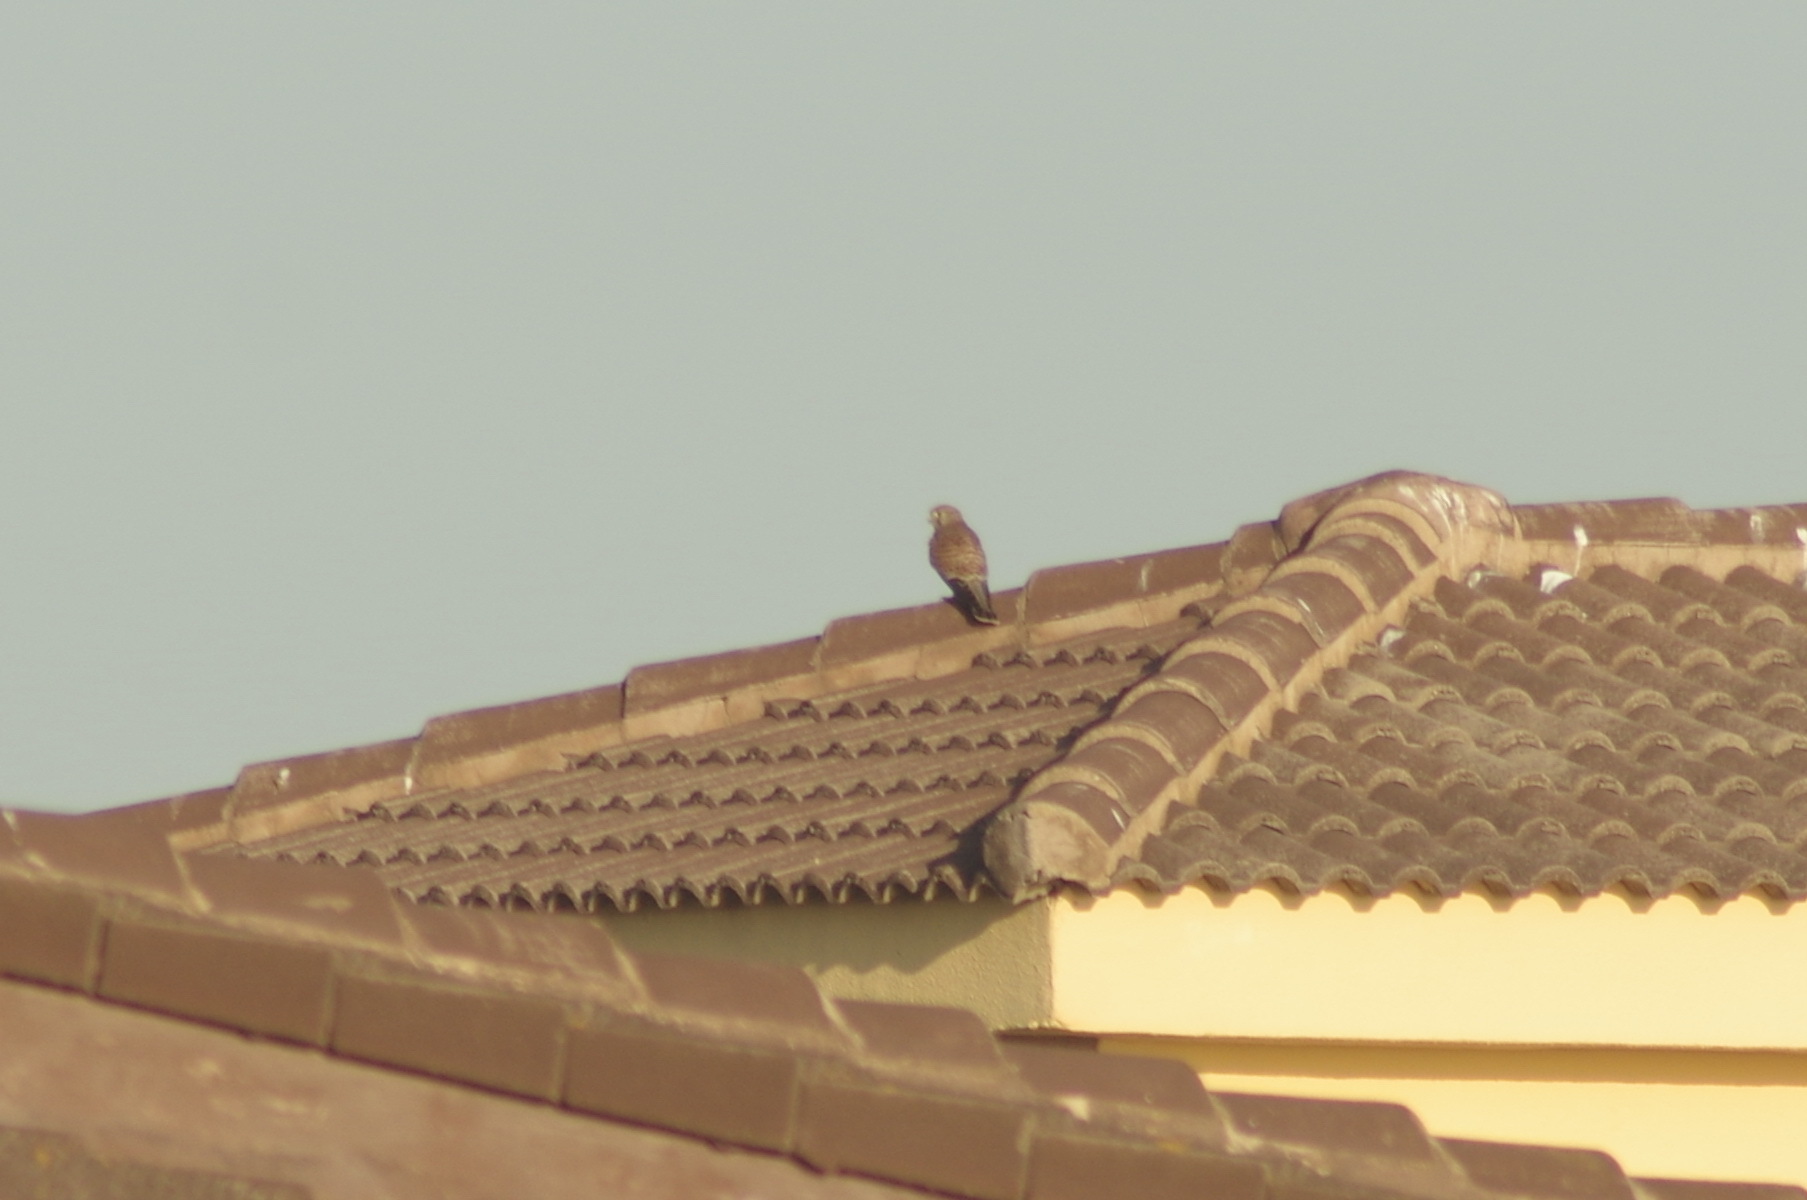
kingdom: Animalia
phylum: Chordata
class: Aves
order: Falconiformes
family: Falconidae
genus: Falco
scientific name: Falco tinnunculus
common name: Common kestrel
